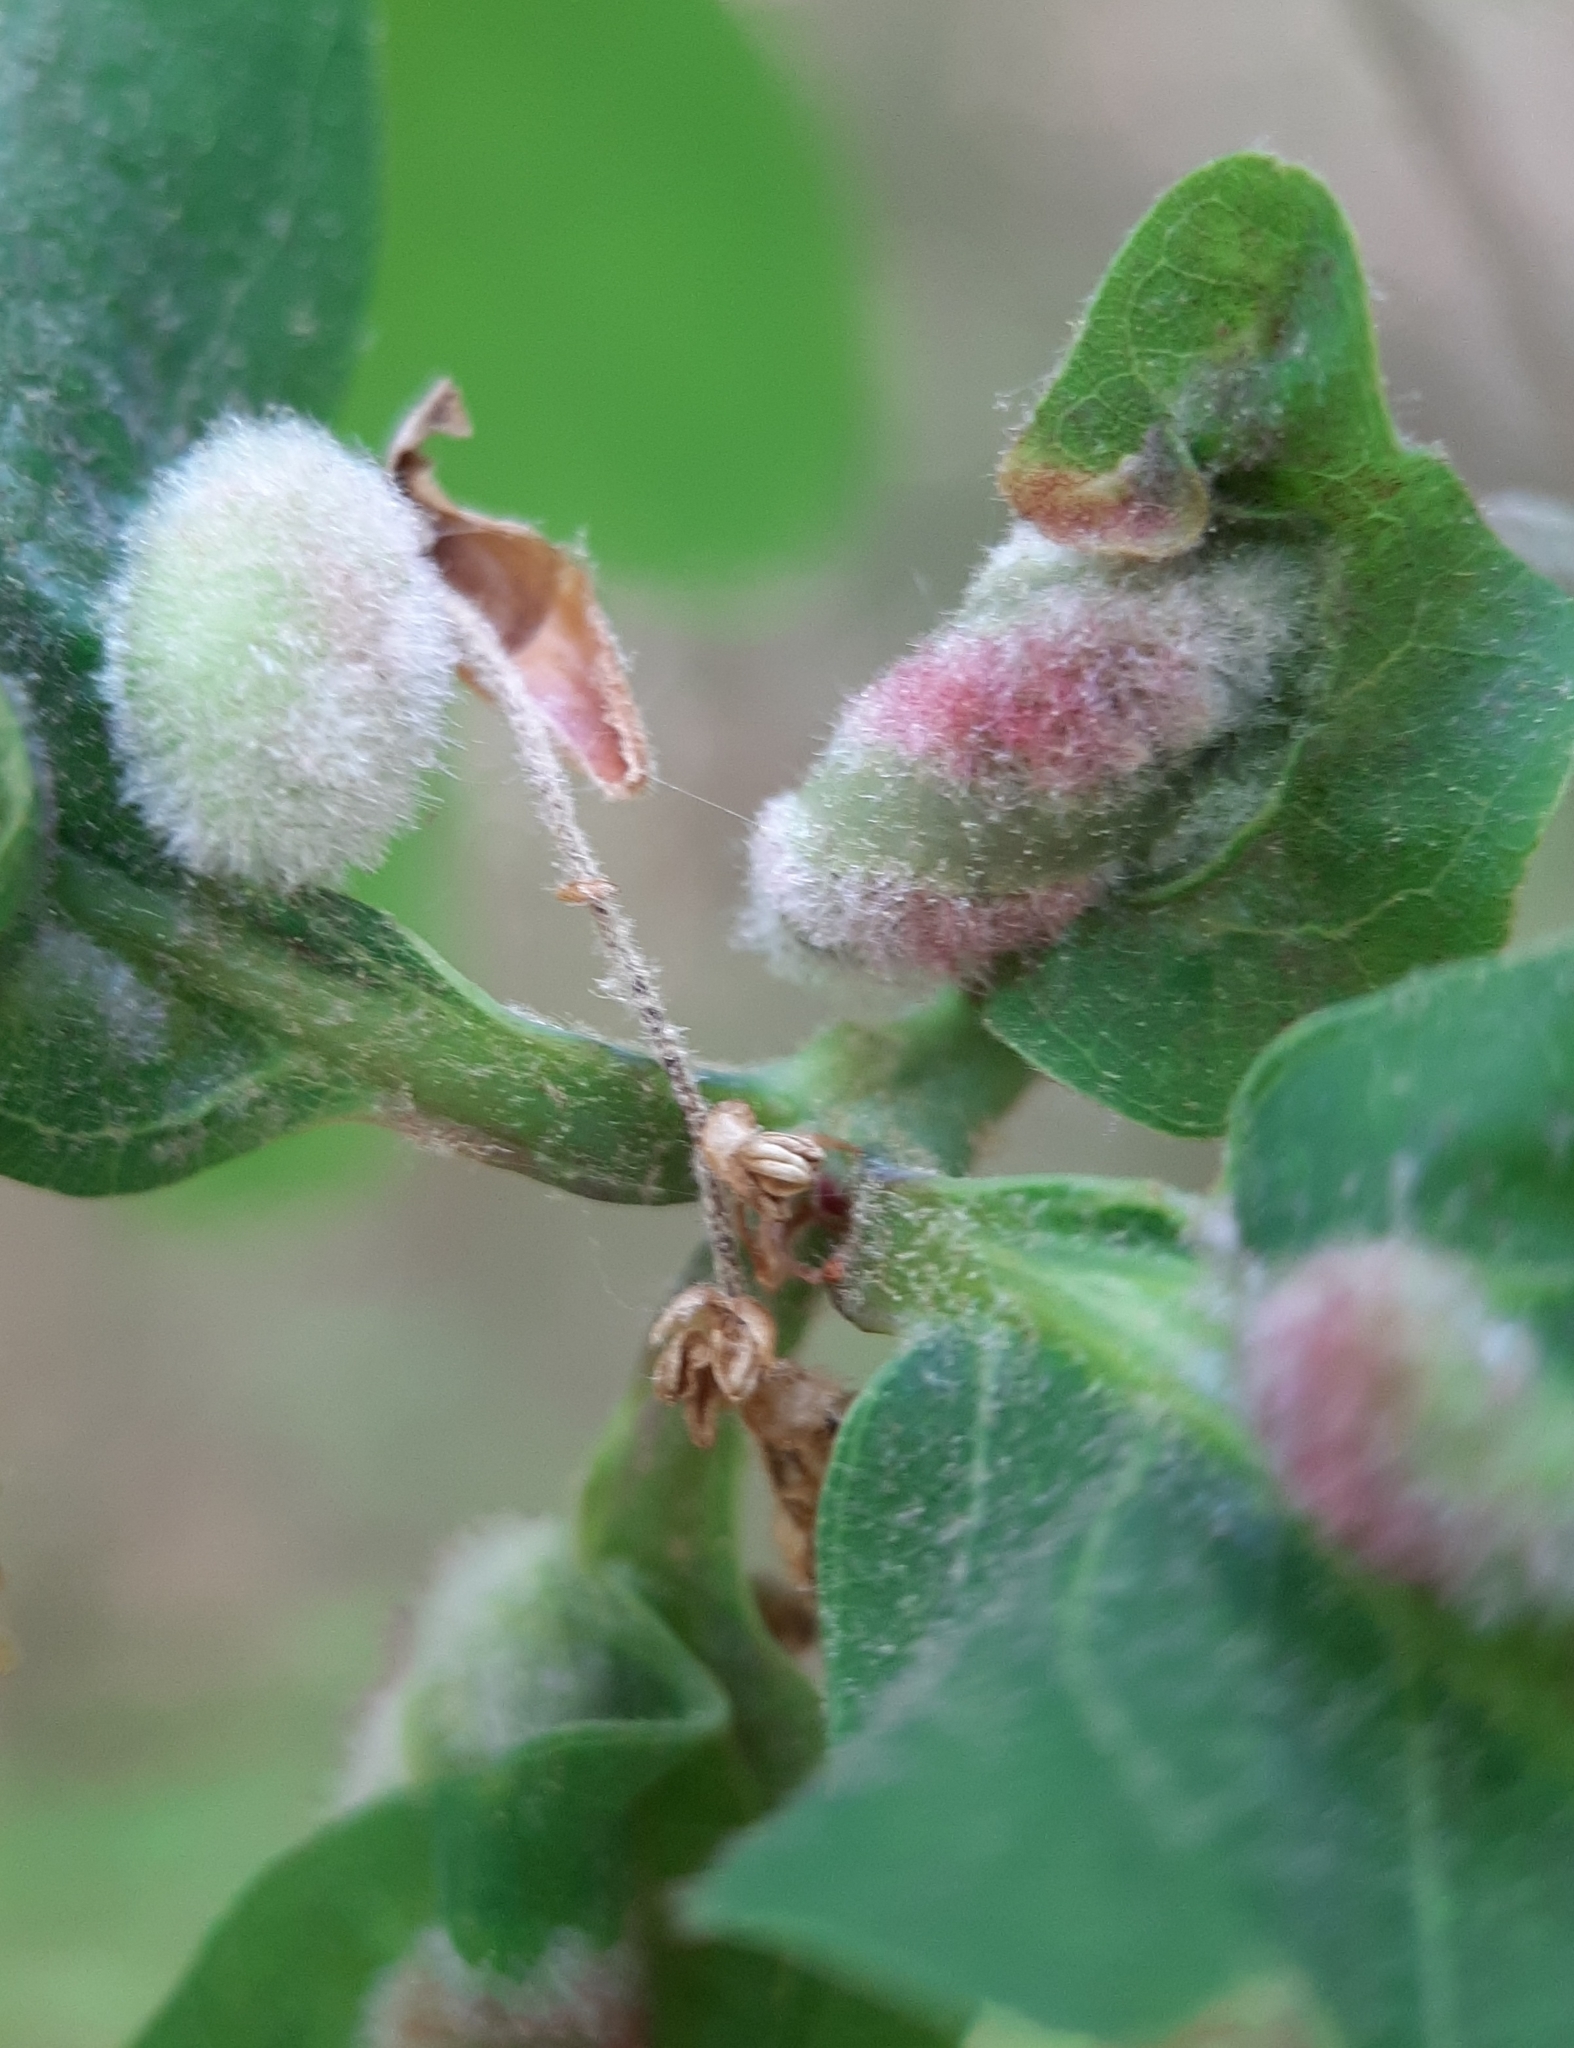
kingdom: Animalia
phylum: Arthropoda
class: Insecta
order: Diptera
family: Cecidomyiidae
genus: Macrodiplosis
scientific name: Macrodiplosis niveipila
